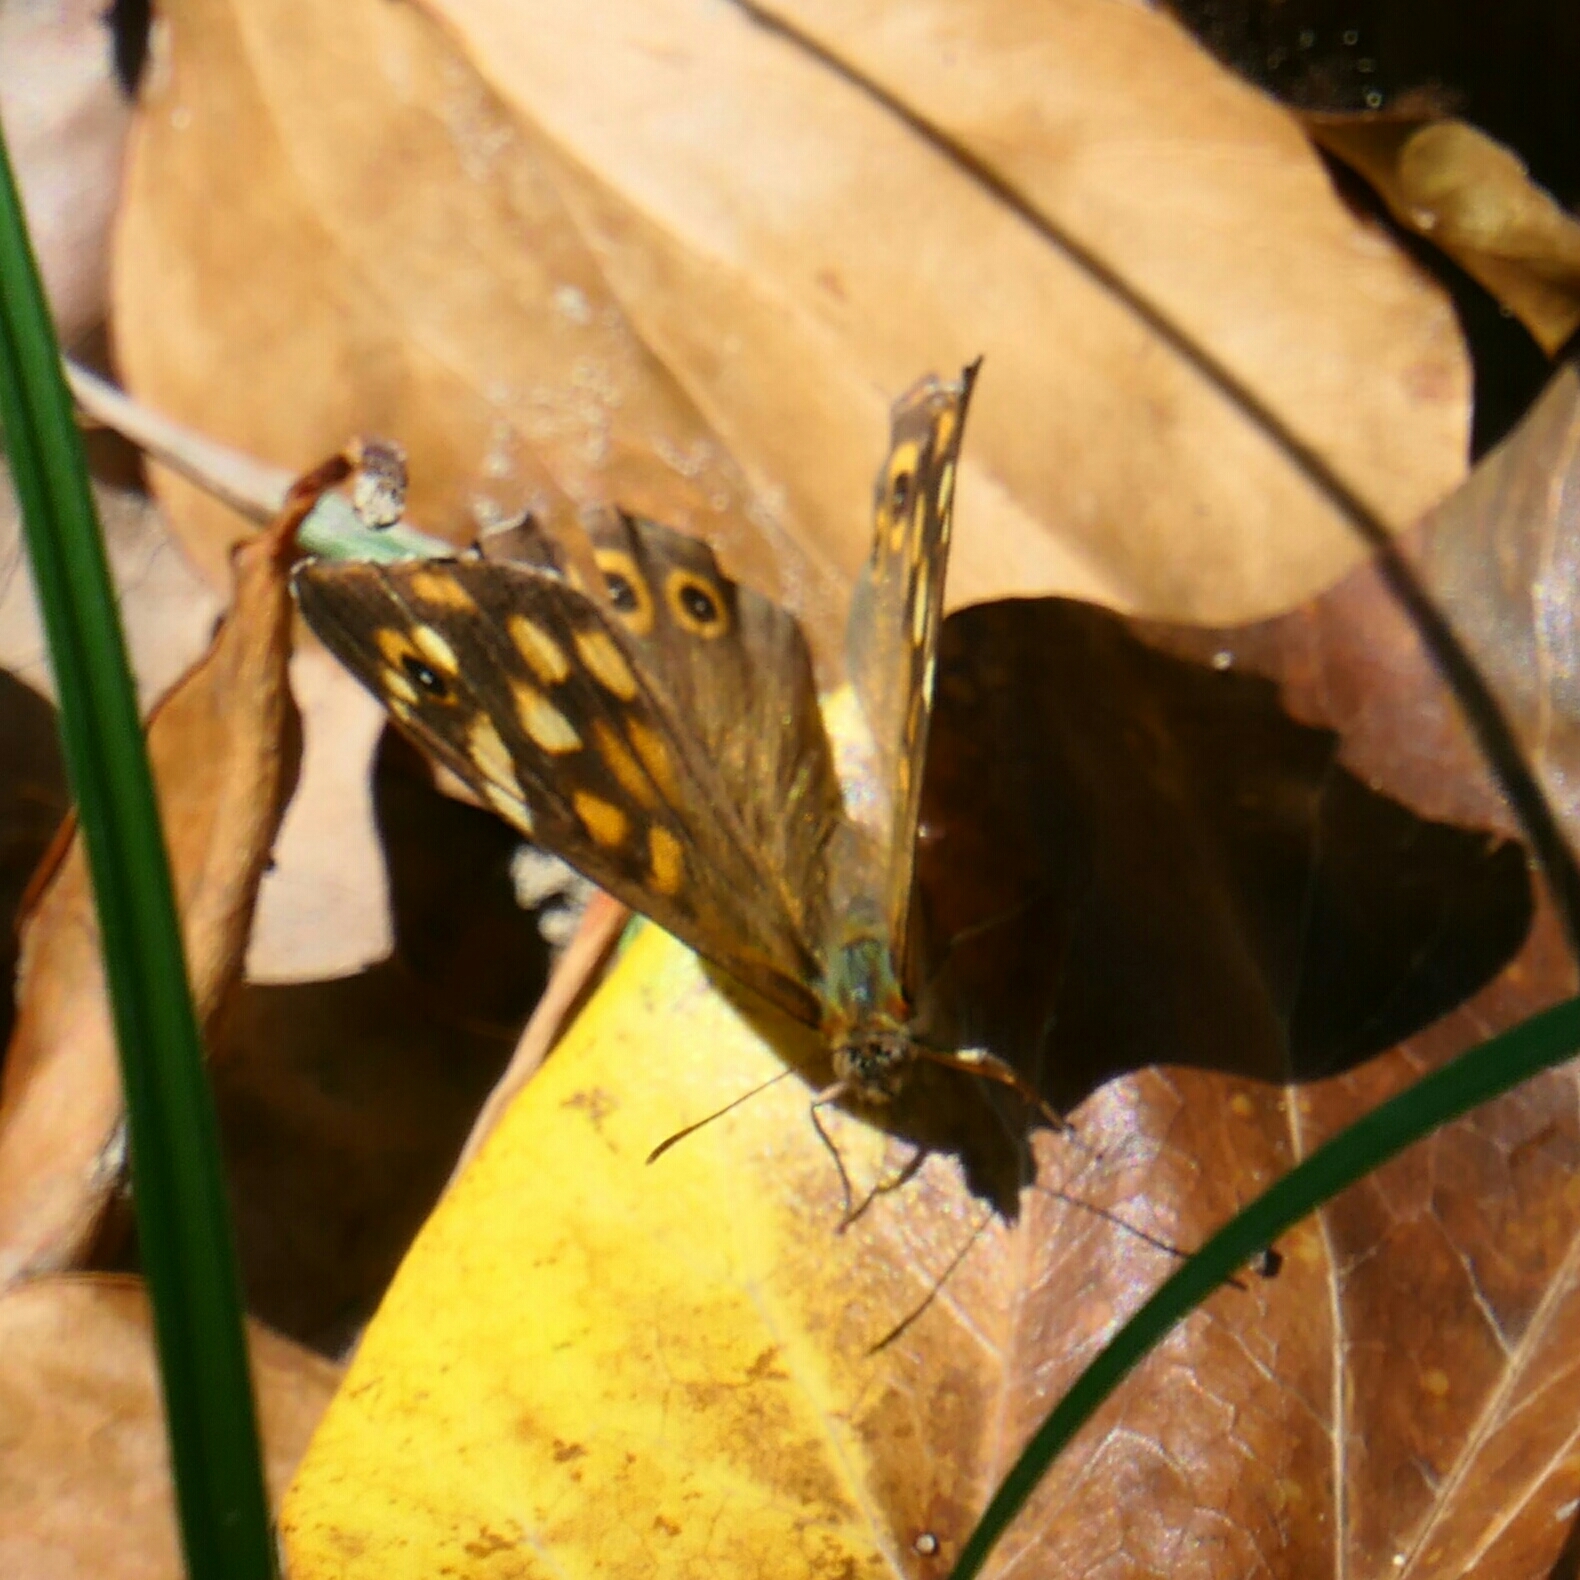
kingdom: Animalia
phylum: Arthropoda
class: Insecta
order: Lepidoptera
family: Nymphalidae
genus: Pararge
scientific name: Pararge aegeria
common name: Speckled wood
